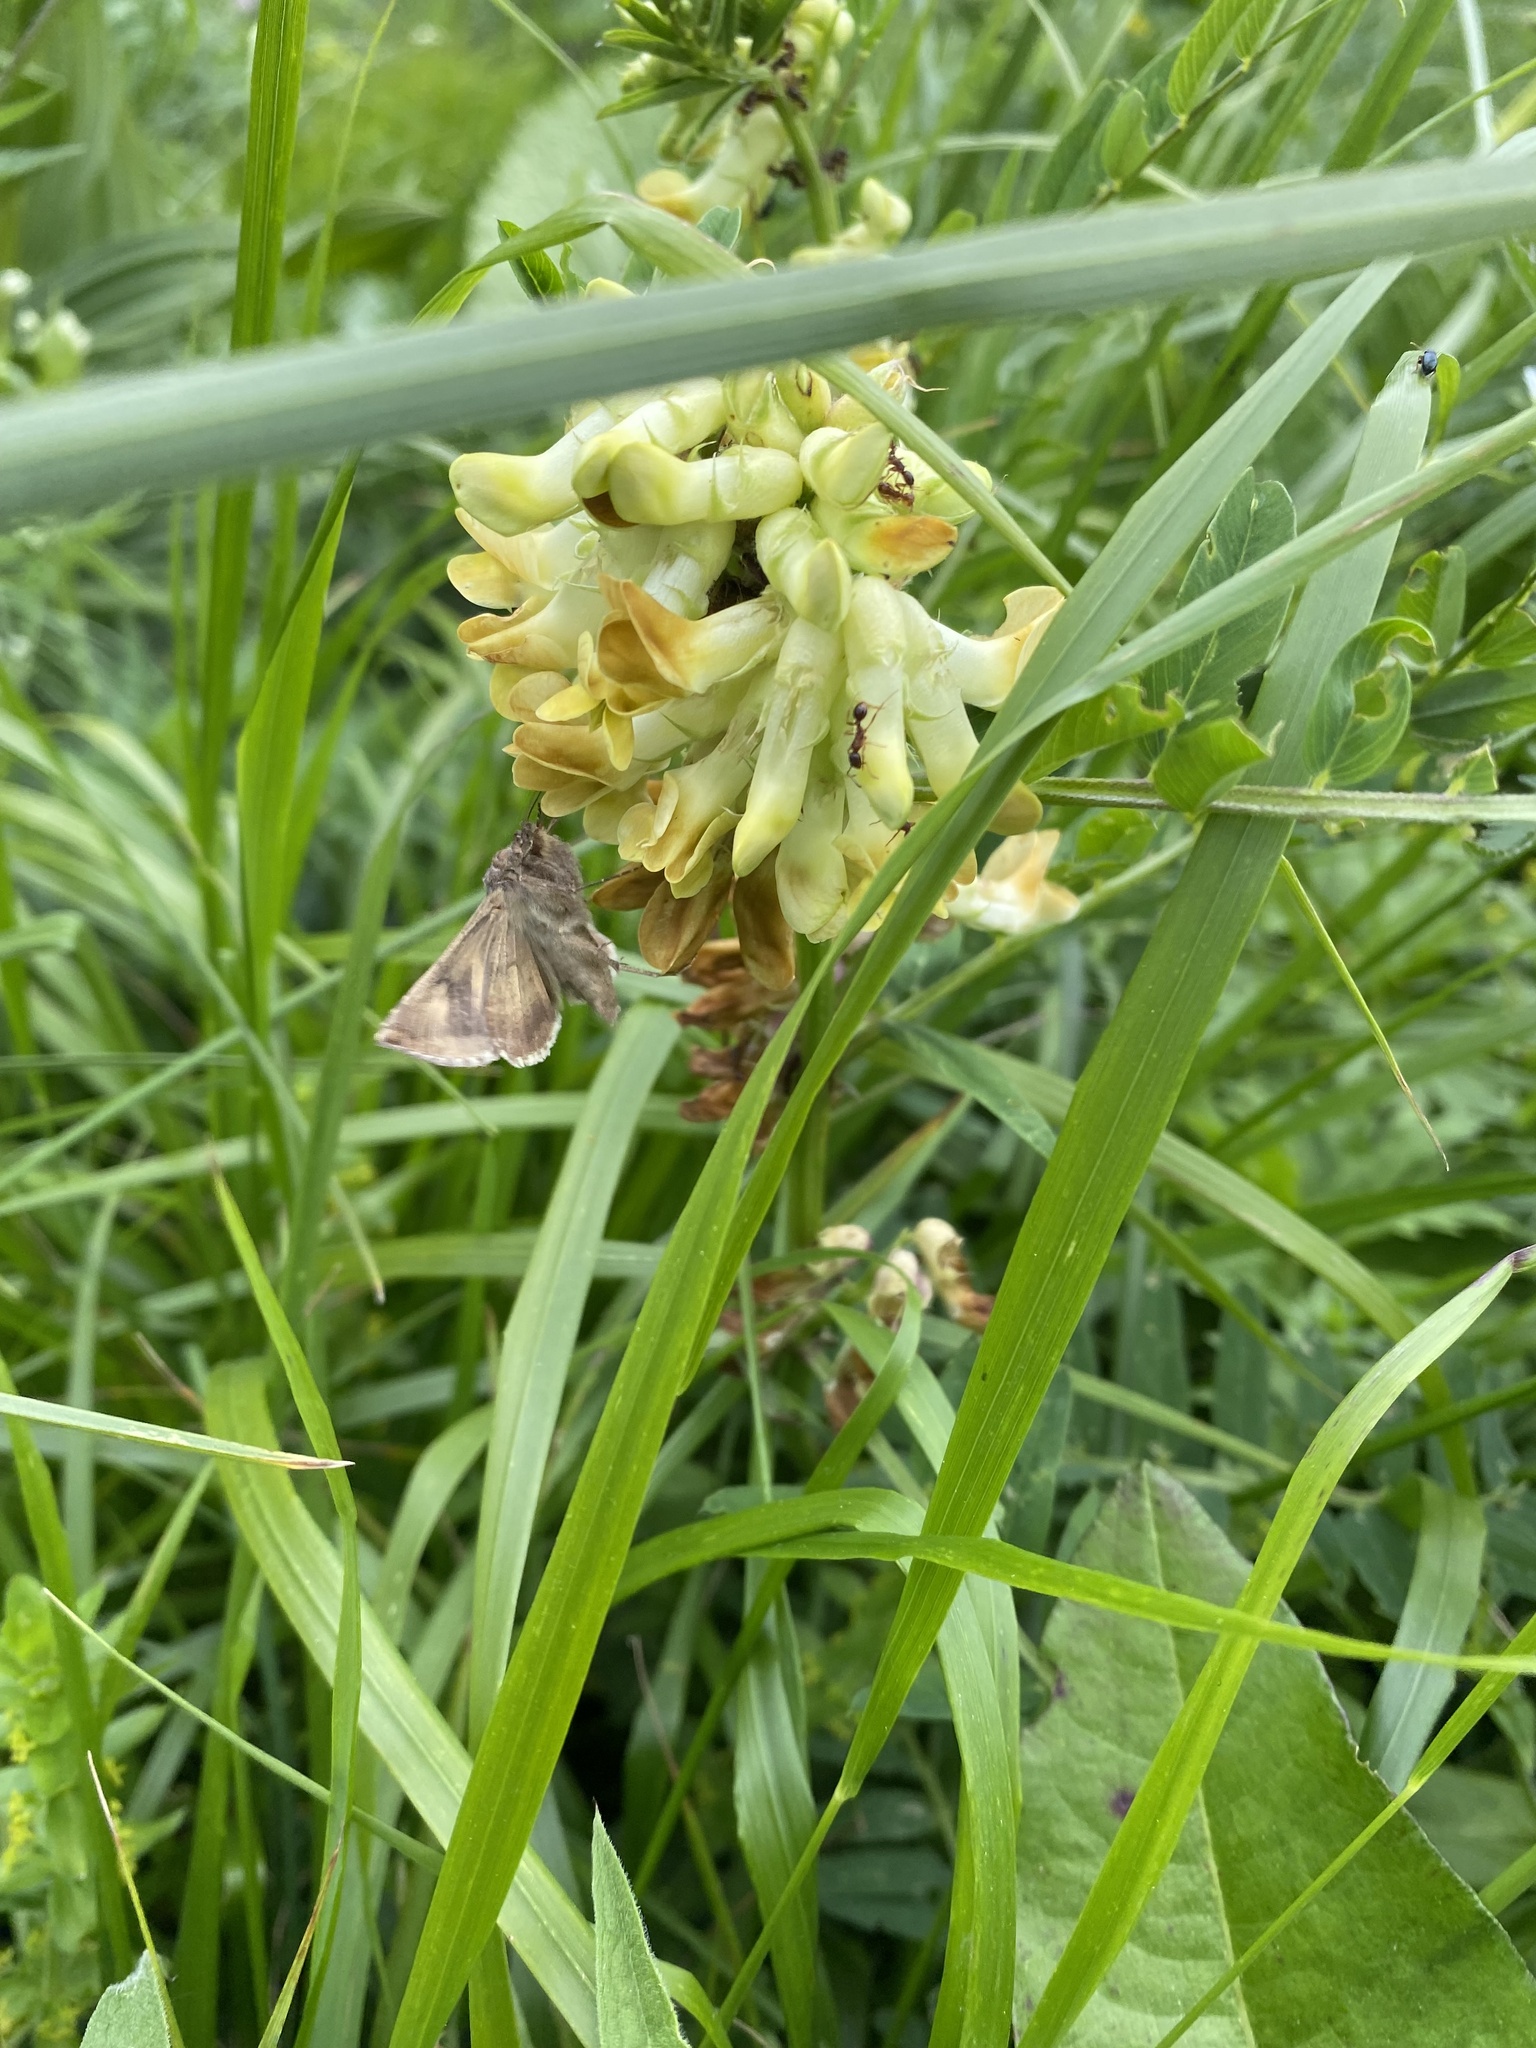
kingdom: Animalia
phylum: Arthropoda
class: Insecta
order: Lepidoptera
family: Noctuidae
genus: Autographa
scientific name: Autographa gamma
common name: Silver y
